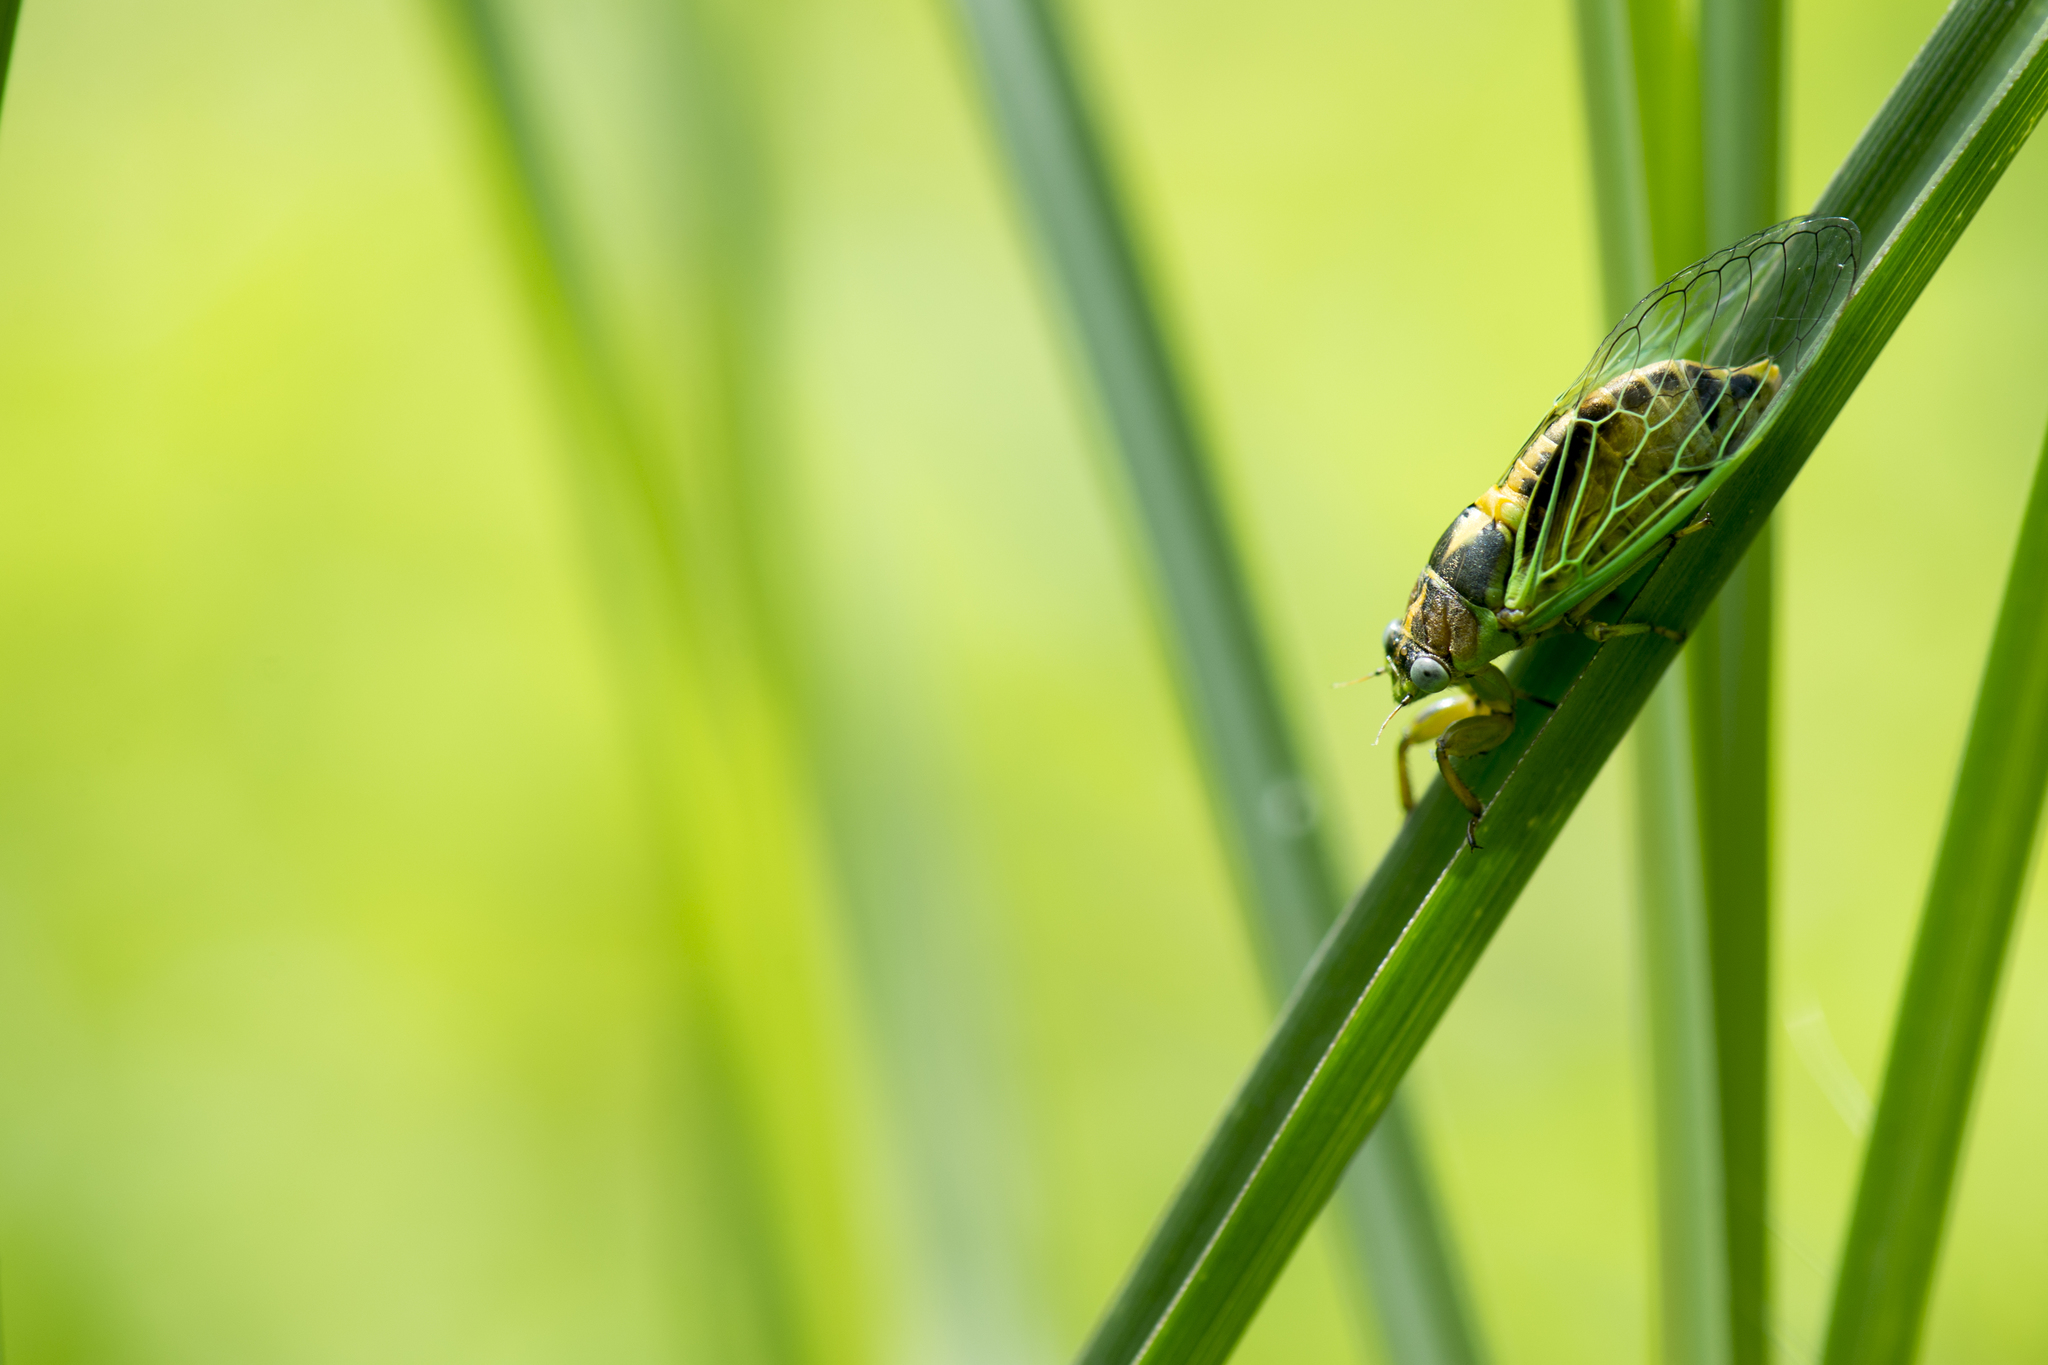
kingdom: Animalia
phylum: Arthropoda
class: Insecta
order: Hemiptera
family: Cicadidae
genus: Mogannia
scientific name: Mogannia hebes
